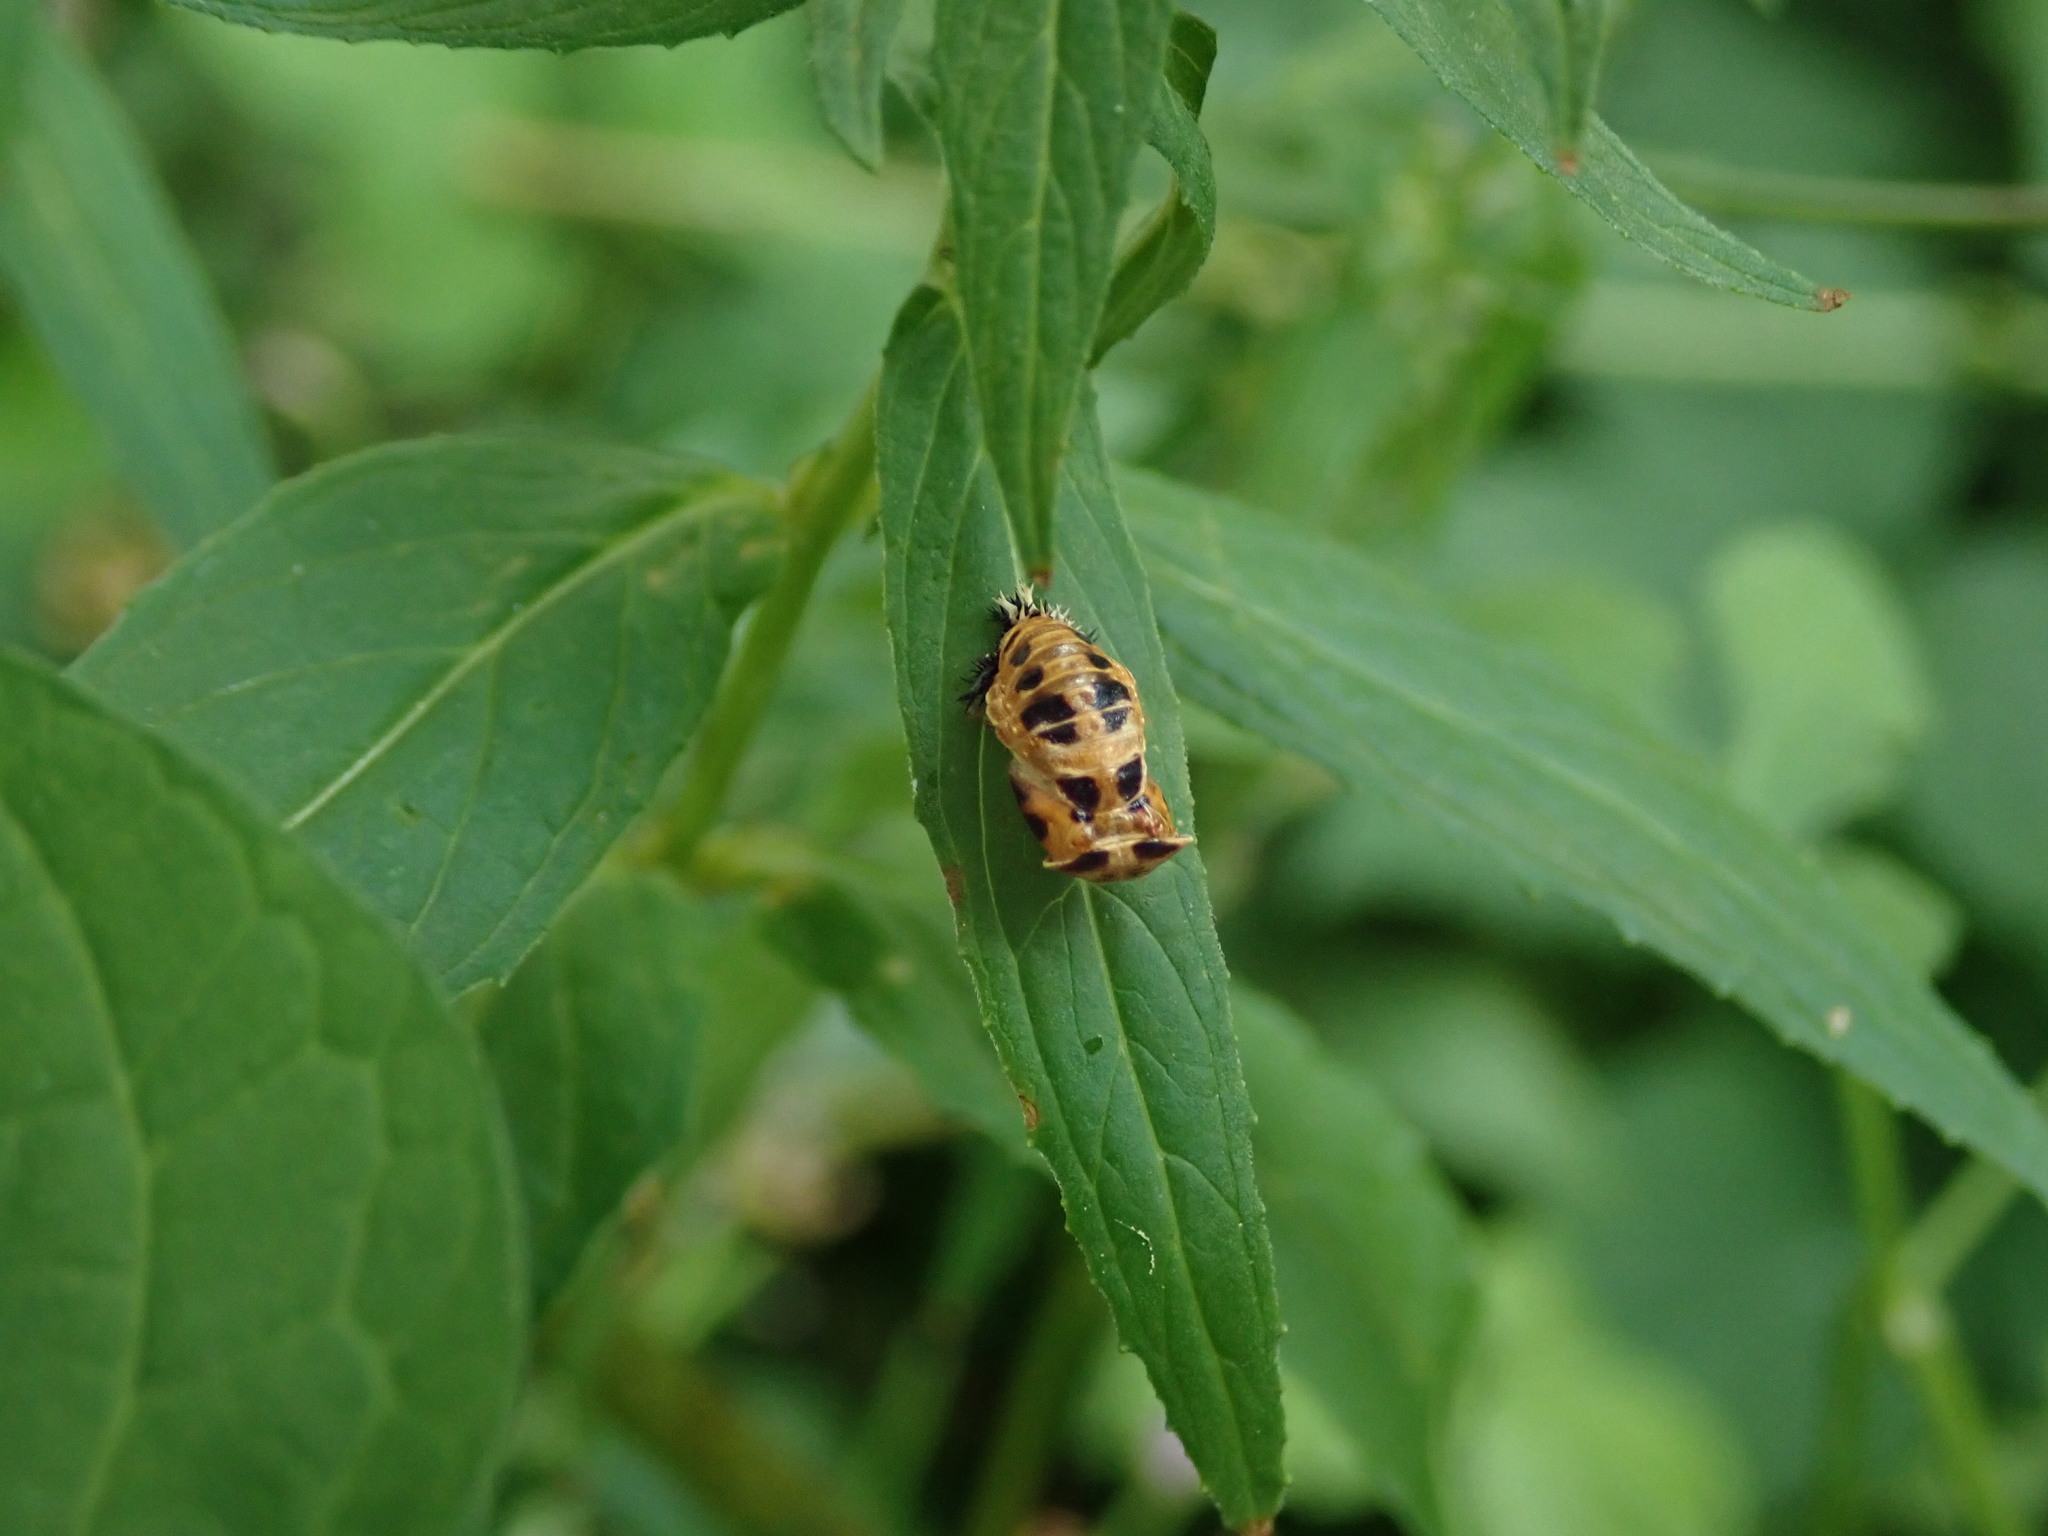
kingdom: Animalia
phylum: Arthropoda
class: Insecta
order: Coleoptera
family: Coccinellidae
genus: Harmonia
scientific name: Harmonia axyridis
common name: Harlequin ladybird
